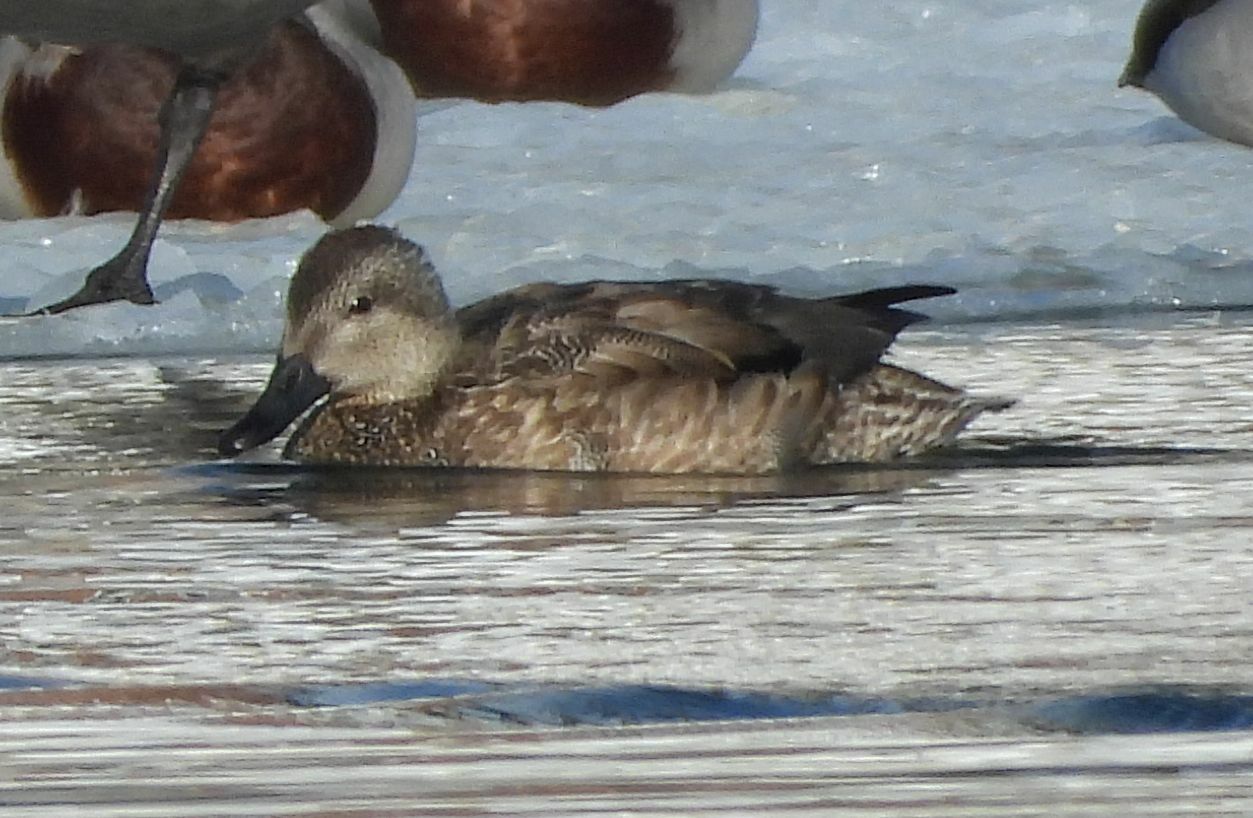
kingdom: Animalia
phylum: Chordata
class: Aves
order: Anseriformes
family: Anatidae
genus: Mareca
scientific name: Mareca strepera
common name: Gadwall
